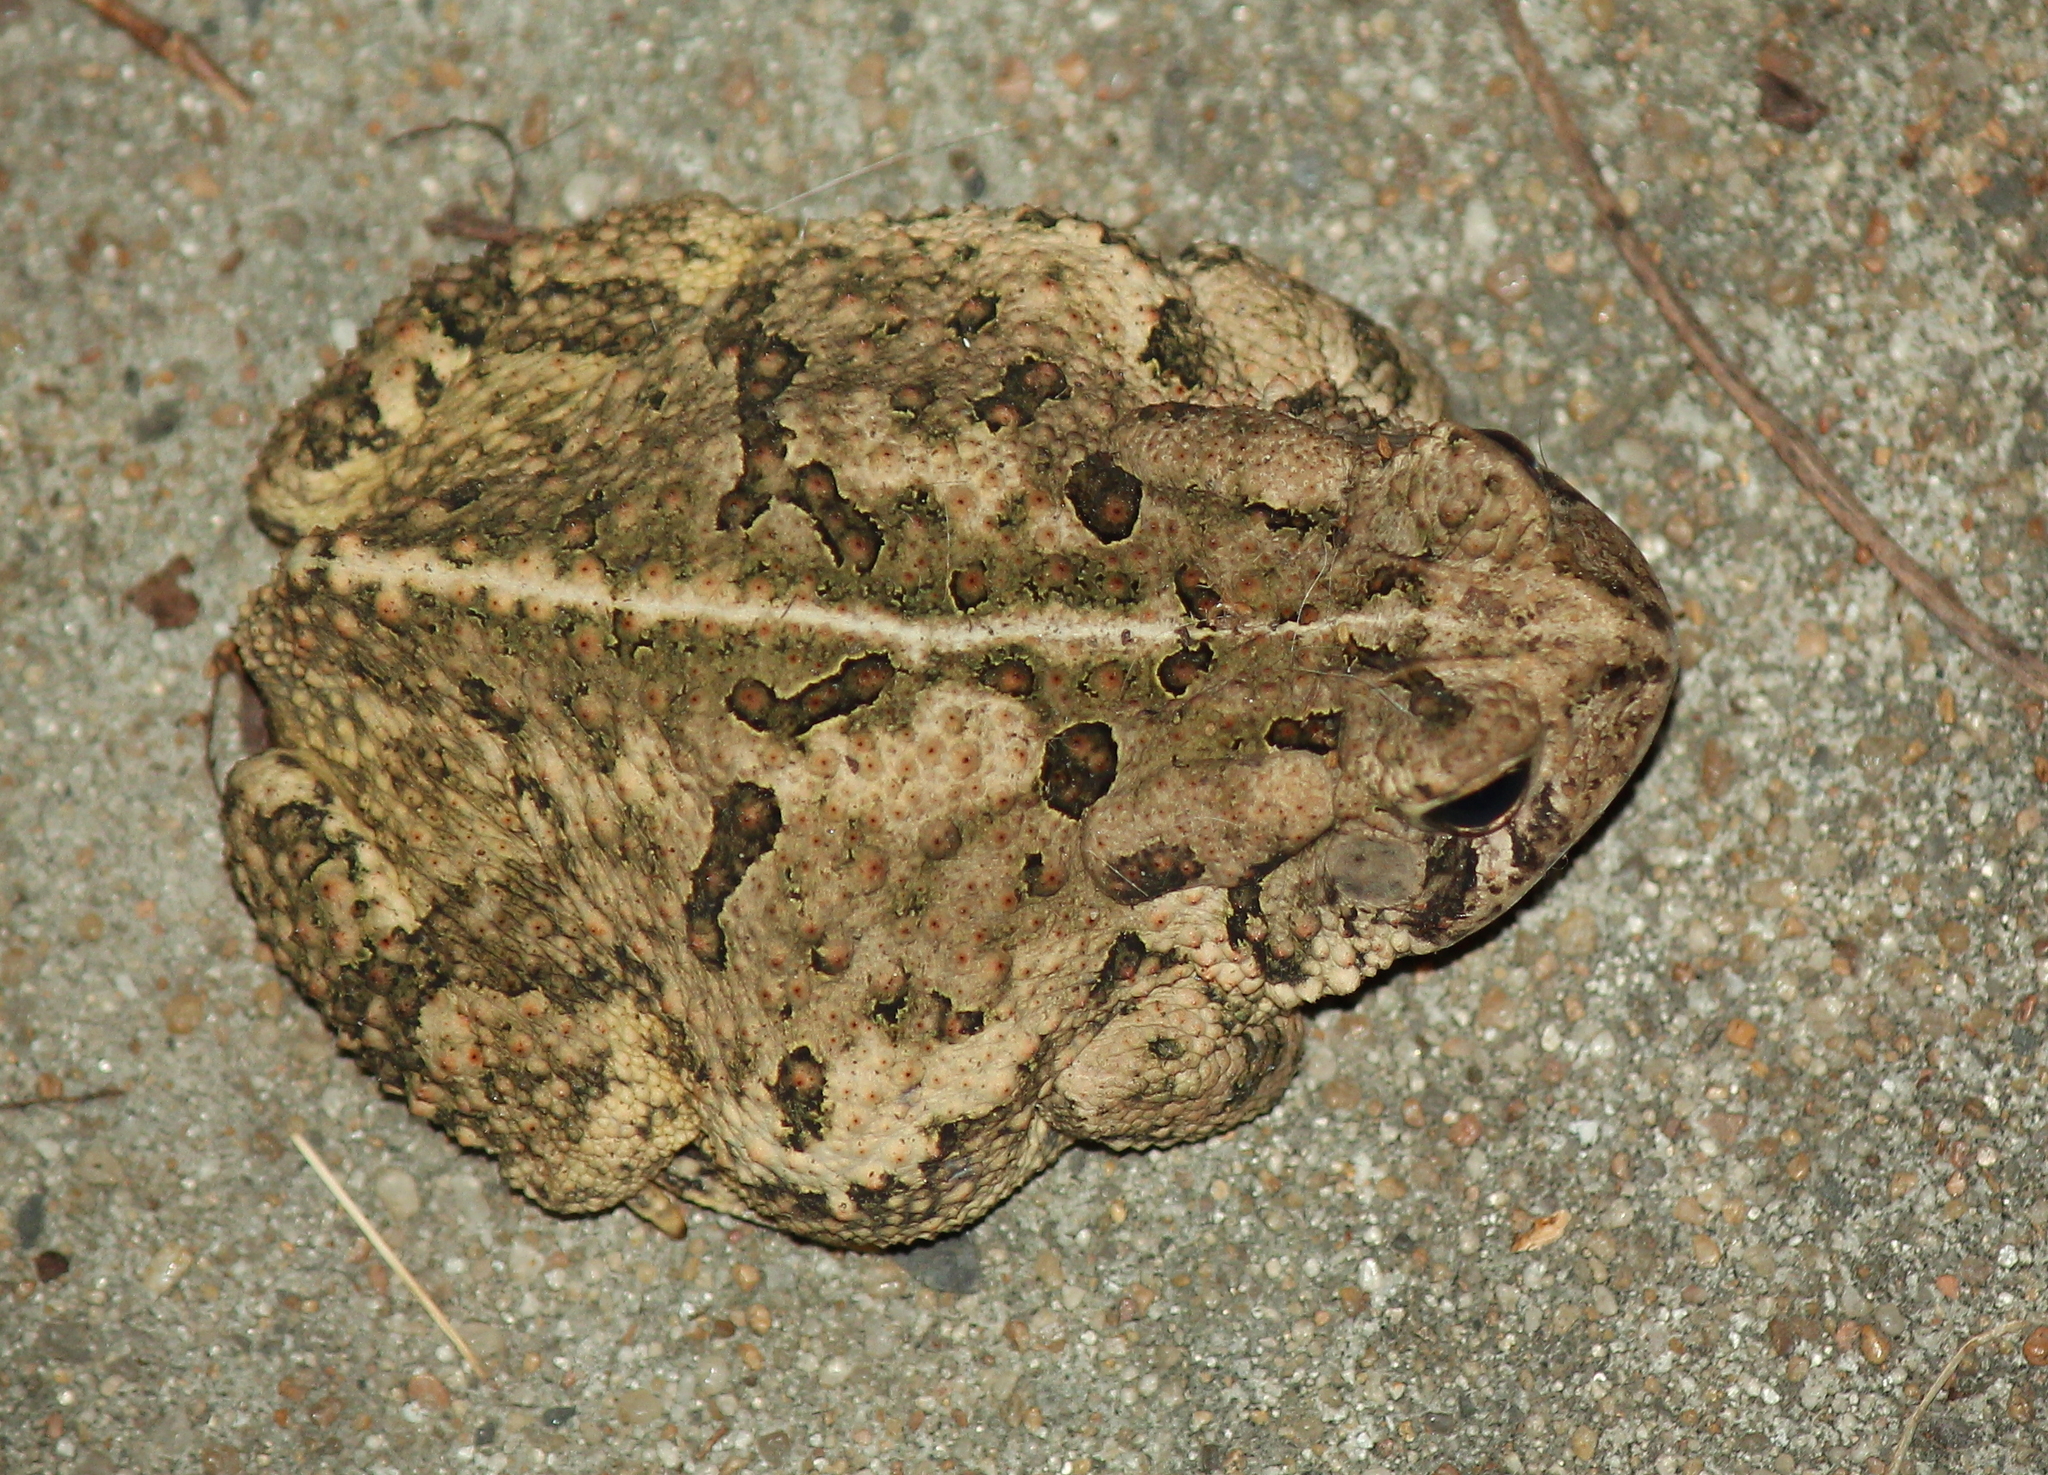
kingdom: Animalia
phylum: Chordata
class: Amphibia
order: Anura
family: Bufonidae
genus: Anaxyrus
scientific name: Anaxyrus fowleri
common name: Fowler's toad
